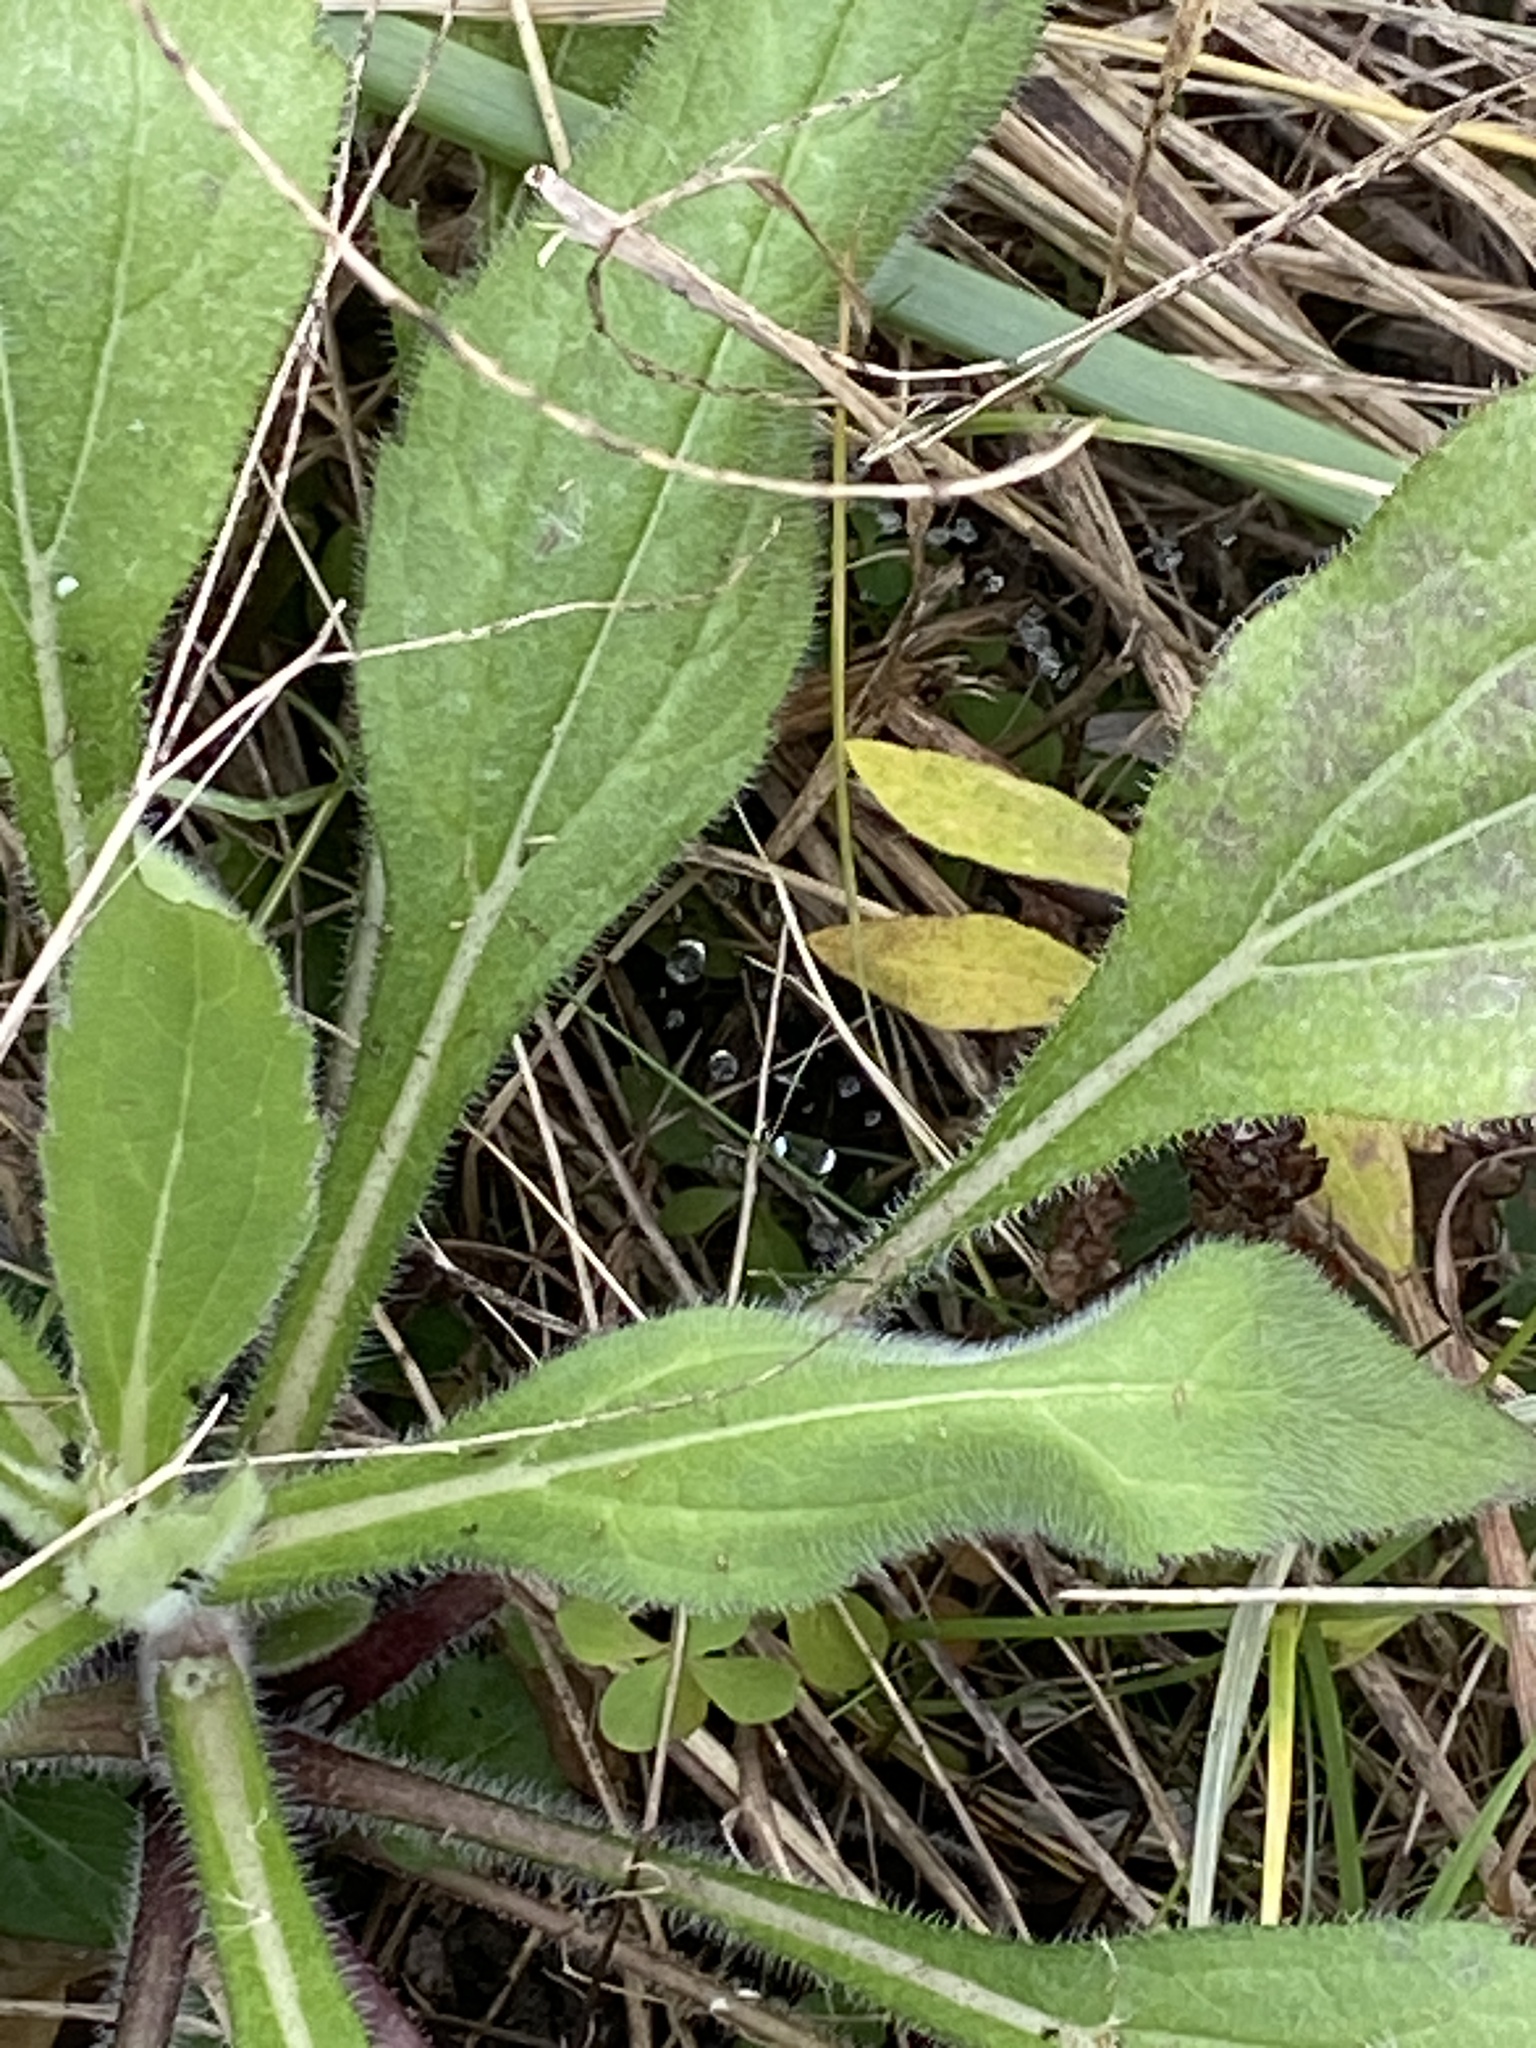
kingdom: Plantae
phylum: Tracheophyta
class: Magnoliopsida
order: Asterales
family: Asteraceae
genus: Rudbeckia
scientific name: Rudbeckia hirta
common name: Black-eyed-susan
